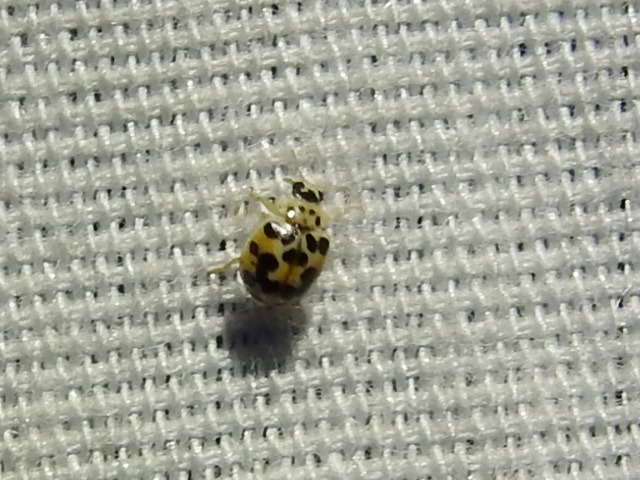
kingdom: Animalia
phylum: Arthropoda
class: Insecta
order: Coleoptera
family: Coccinellidae
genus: Psyllobora
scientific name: Psyllobora vigintimaculata
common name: Ladybird beetle
